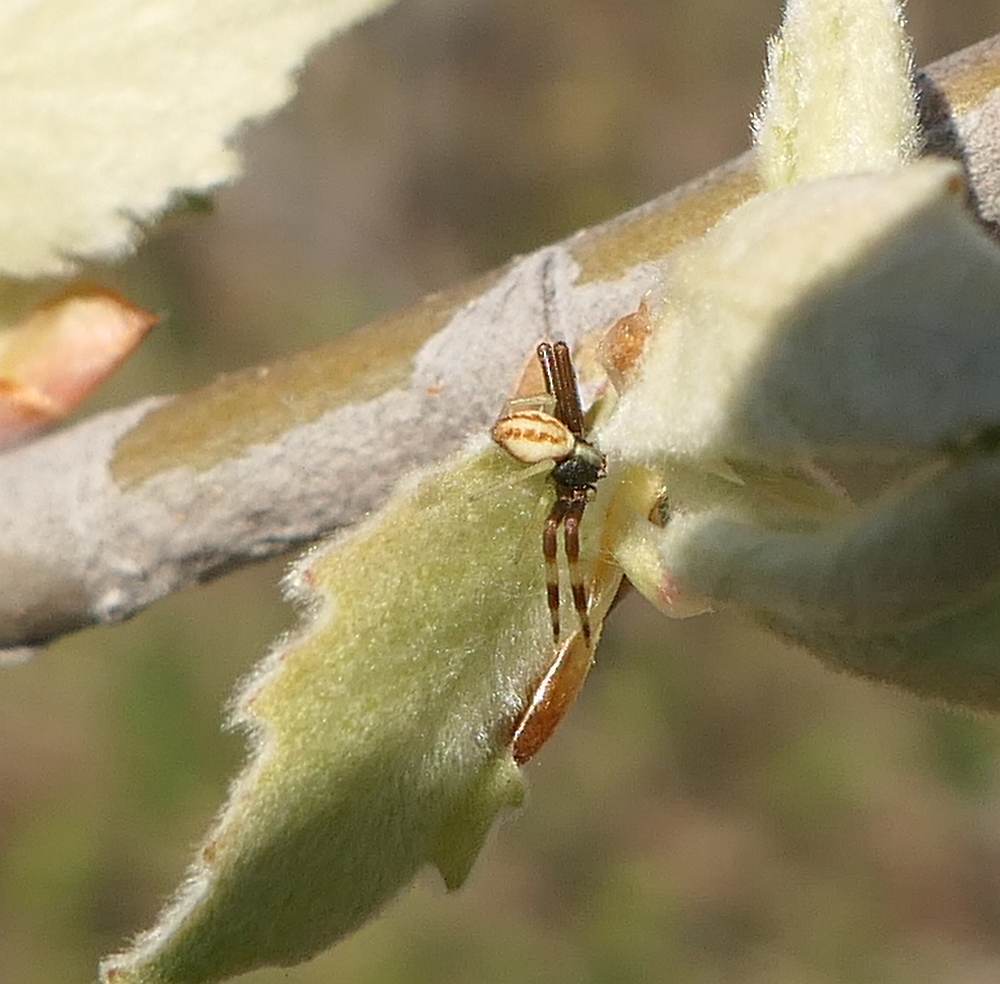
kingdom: Animalia
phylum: Arthropoda
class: Arachnida
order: Araneae
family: Thomisidae
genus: Misumena
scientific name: Misumena vatia
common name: Goldenrod crab spider
